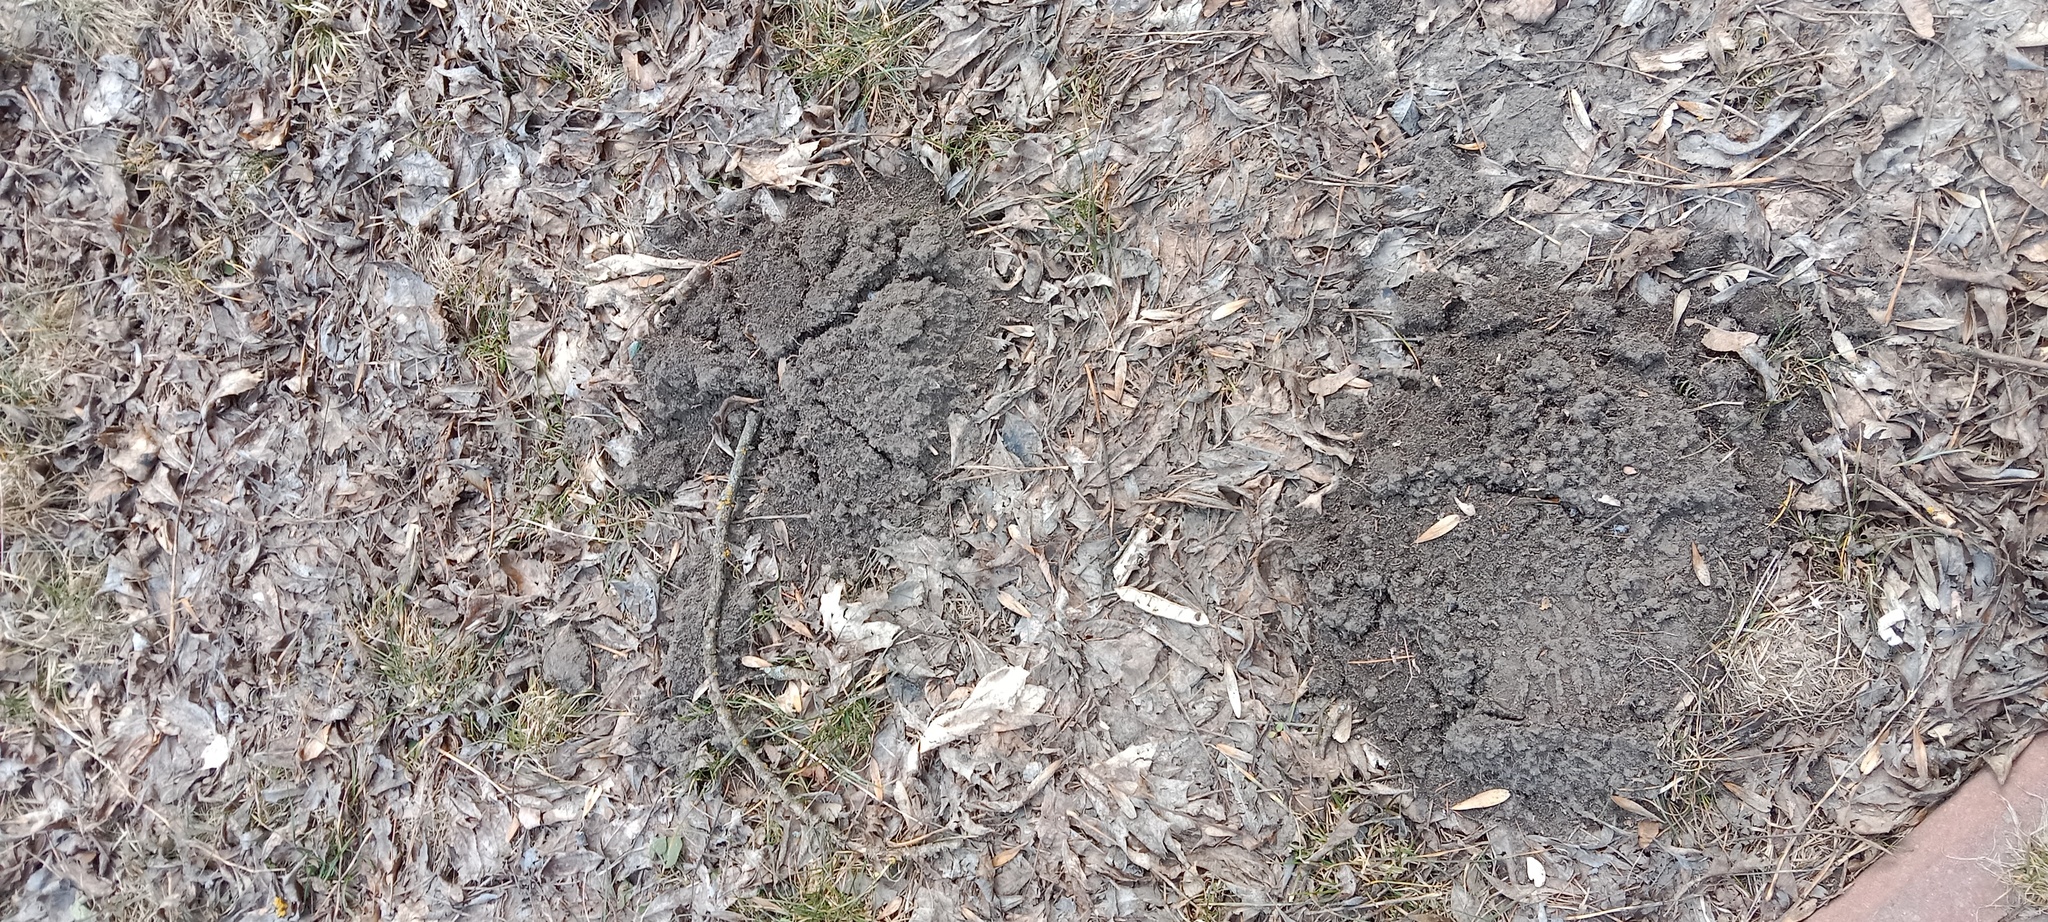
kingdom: Animalia
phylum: Chordata
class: Mammalia
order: Soricomorpha
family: Talpidae
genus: Talpa
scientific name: Talpa europaea
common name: European mole
